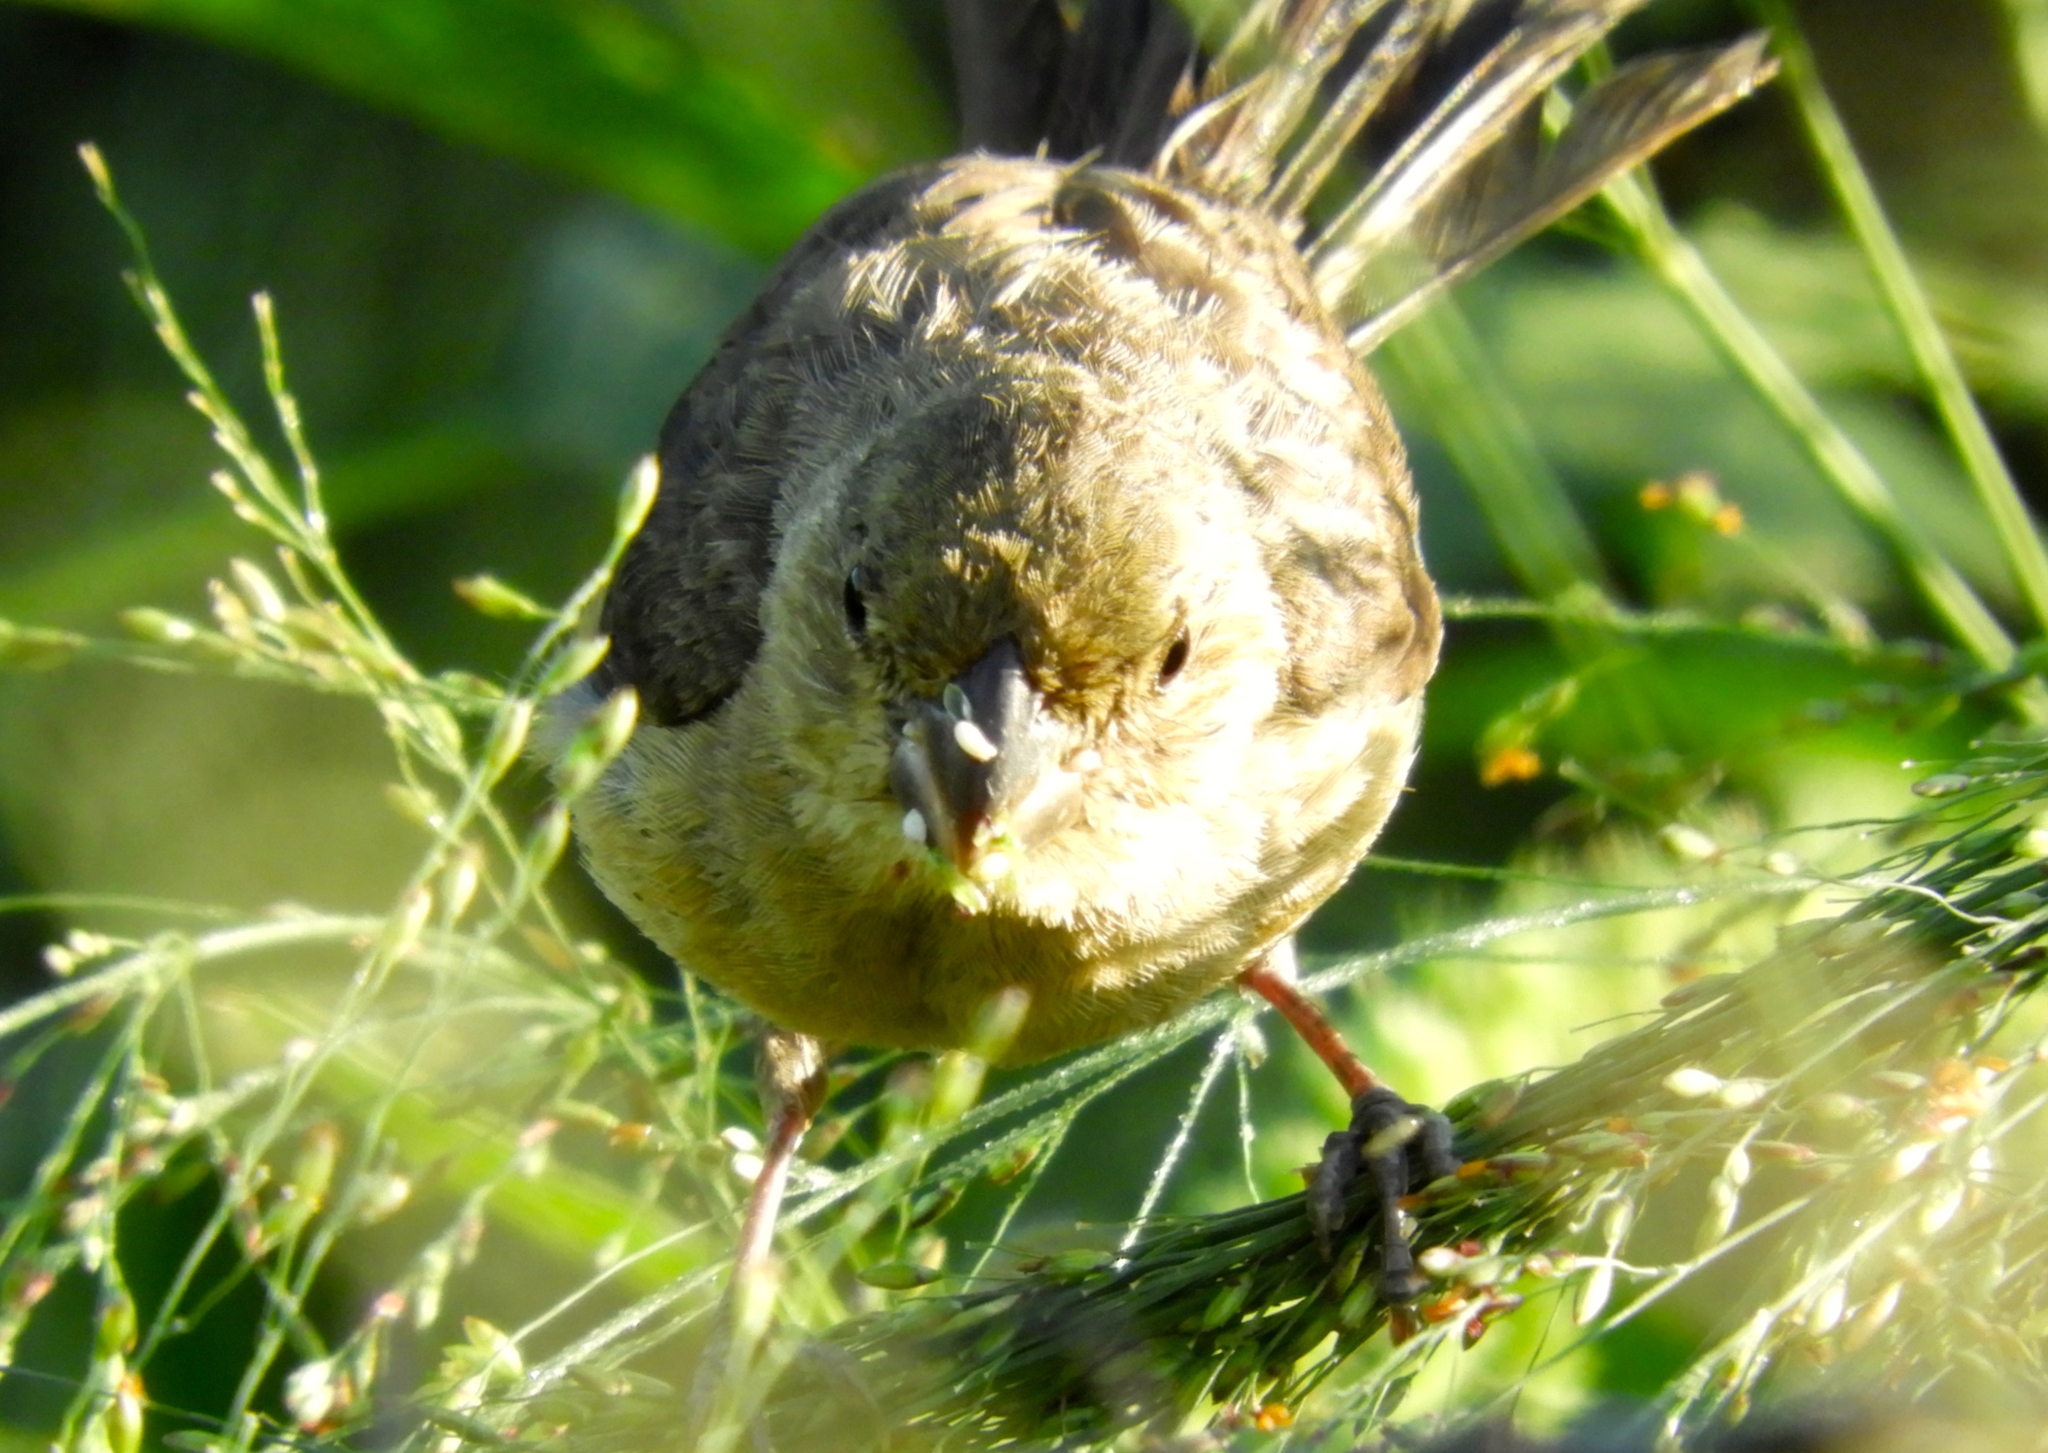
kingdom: Animalia
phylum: Chordata
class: Aves
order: Passeriformes
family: Thraupidae
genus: Sporophila
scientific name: Sporophila torqueola
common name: White-collared seedeater
